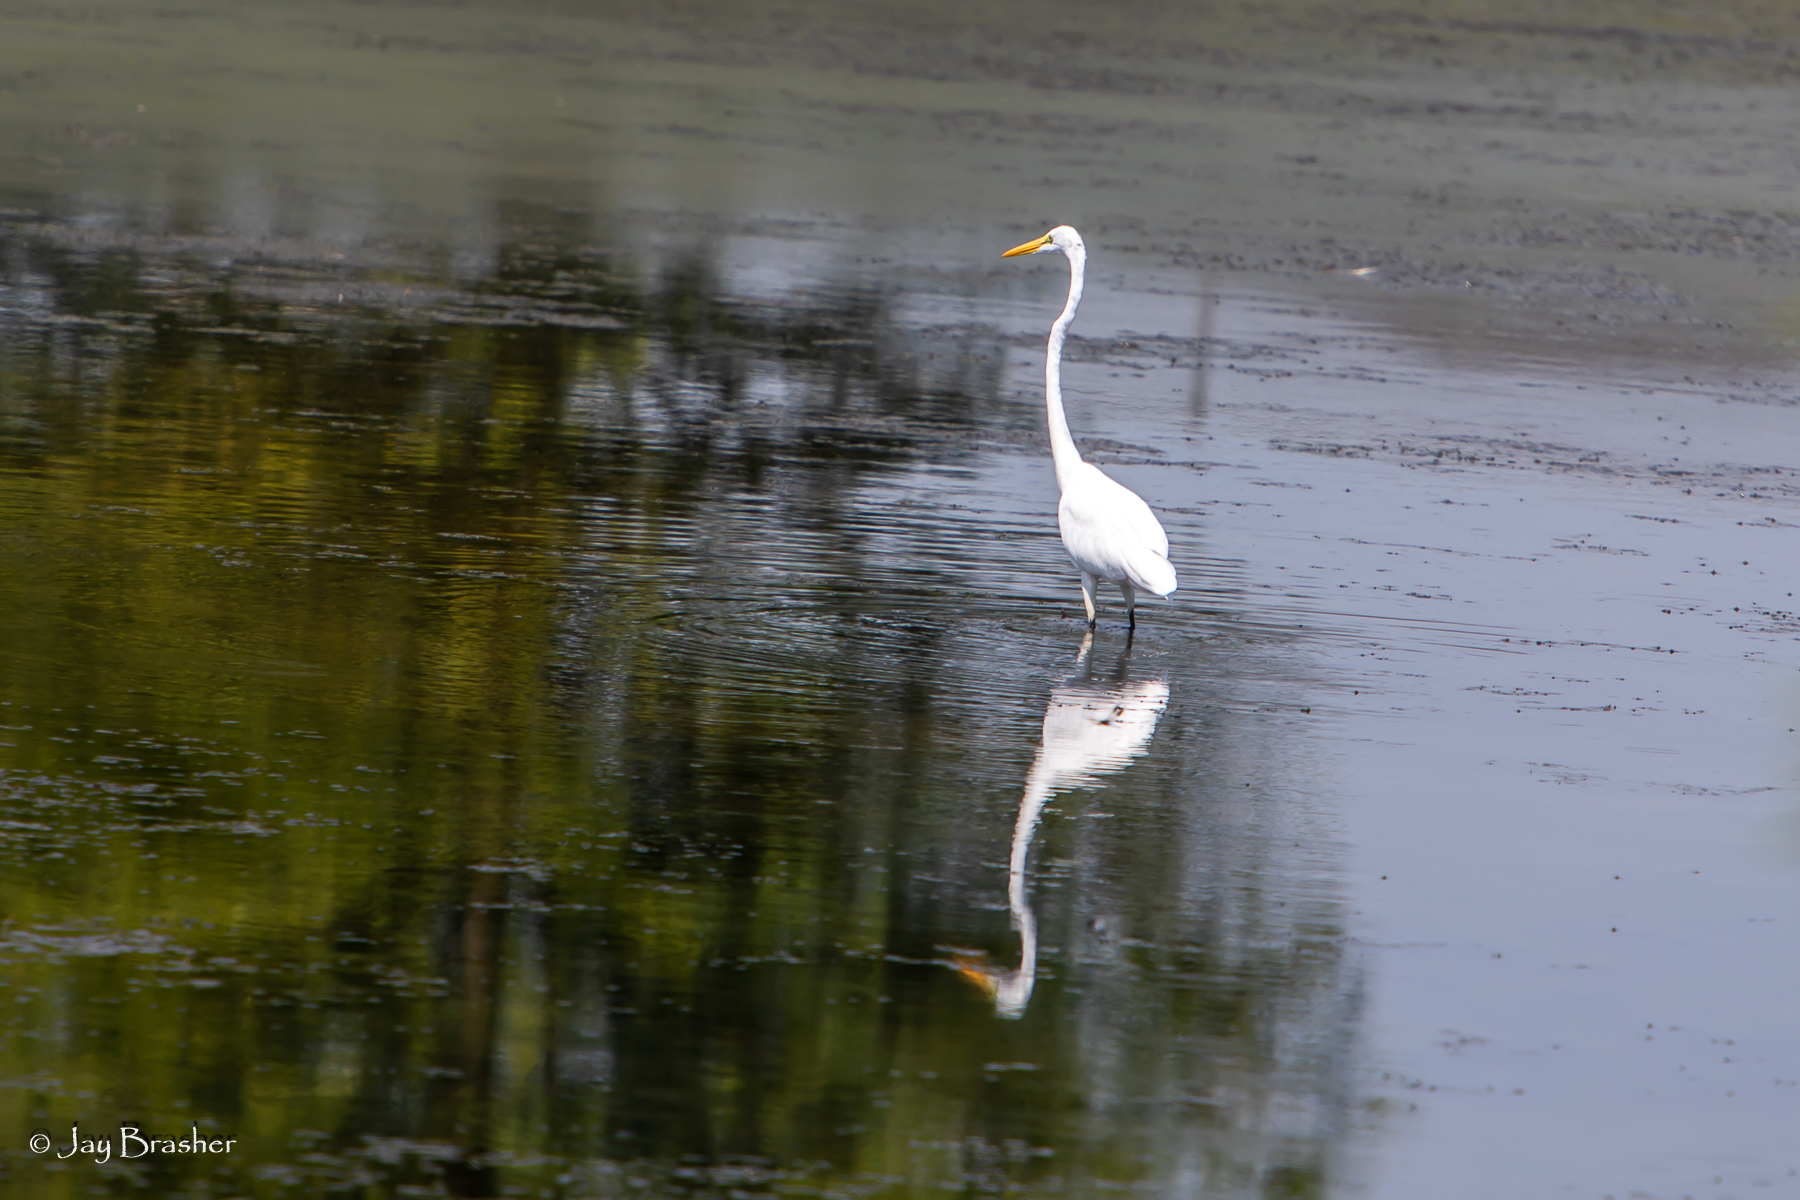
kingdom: Animalia
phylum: Chordata
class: Aves
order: Pelecaniformes
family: Ardeidae
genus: Ardea
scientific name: Ardea alba
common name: Great egret
